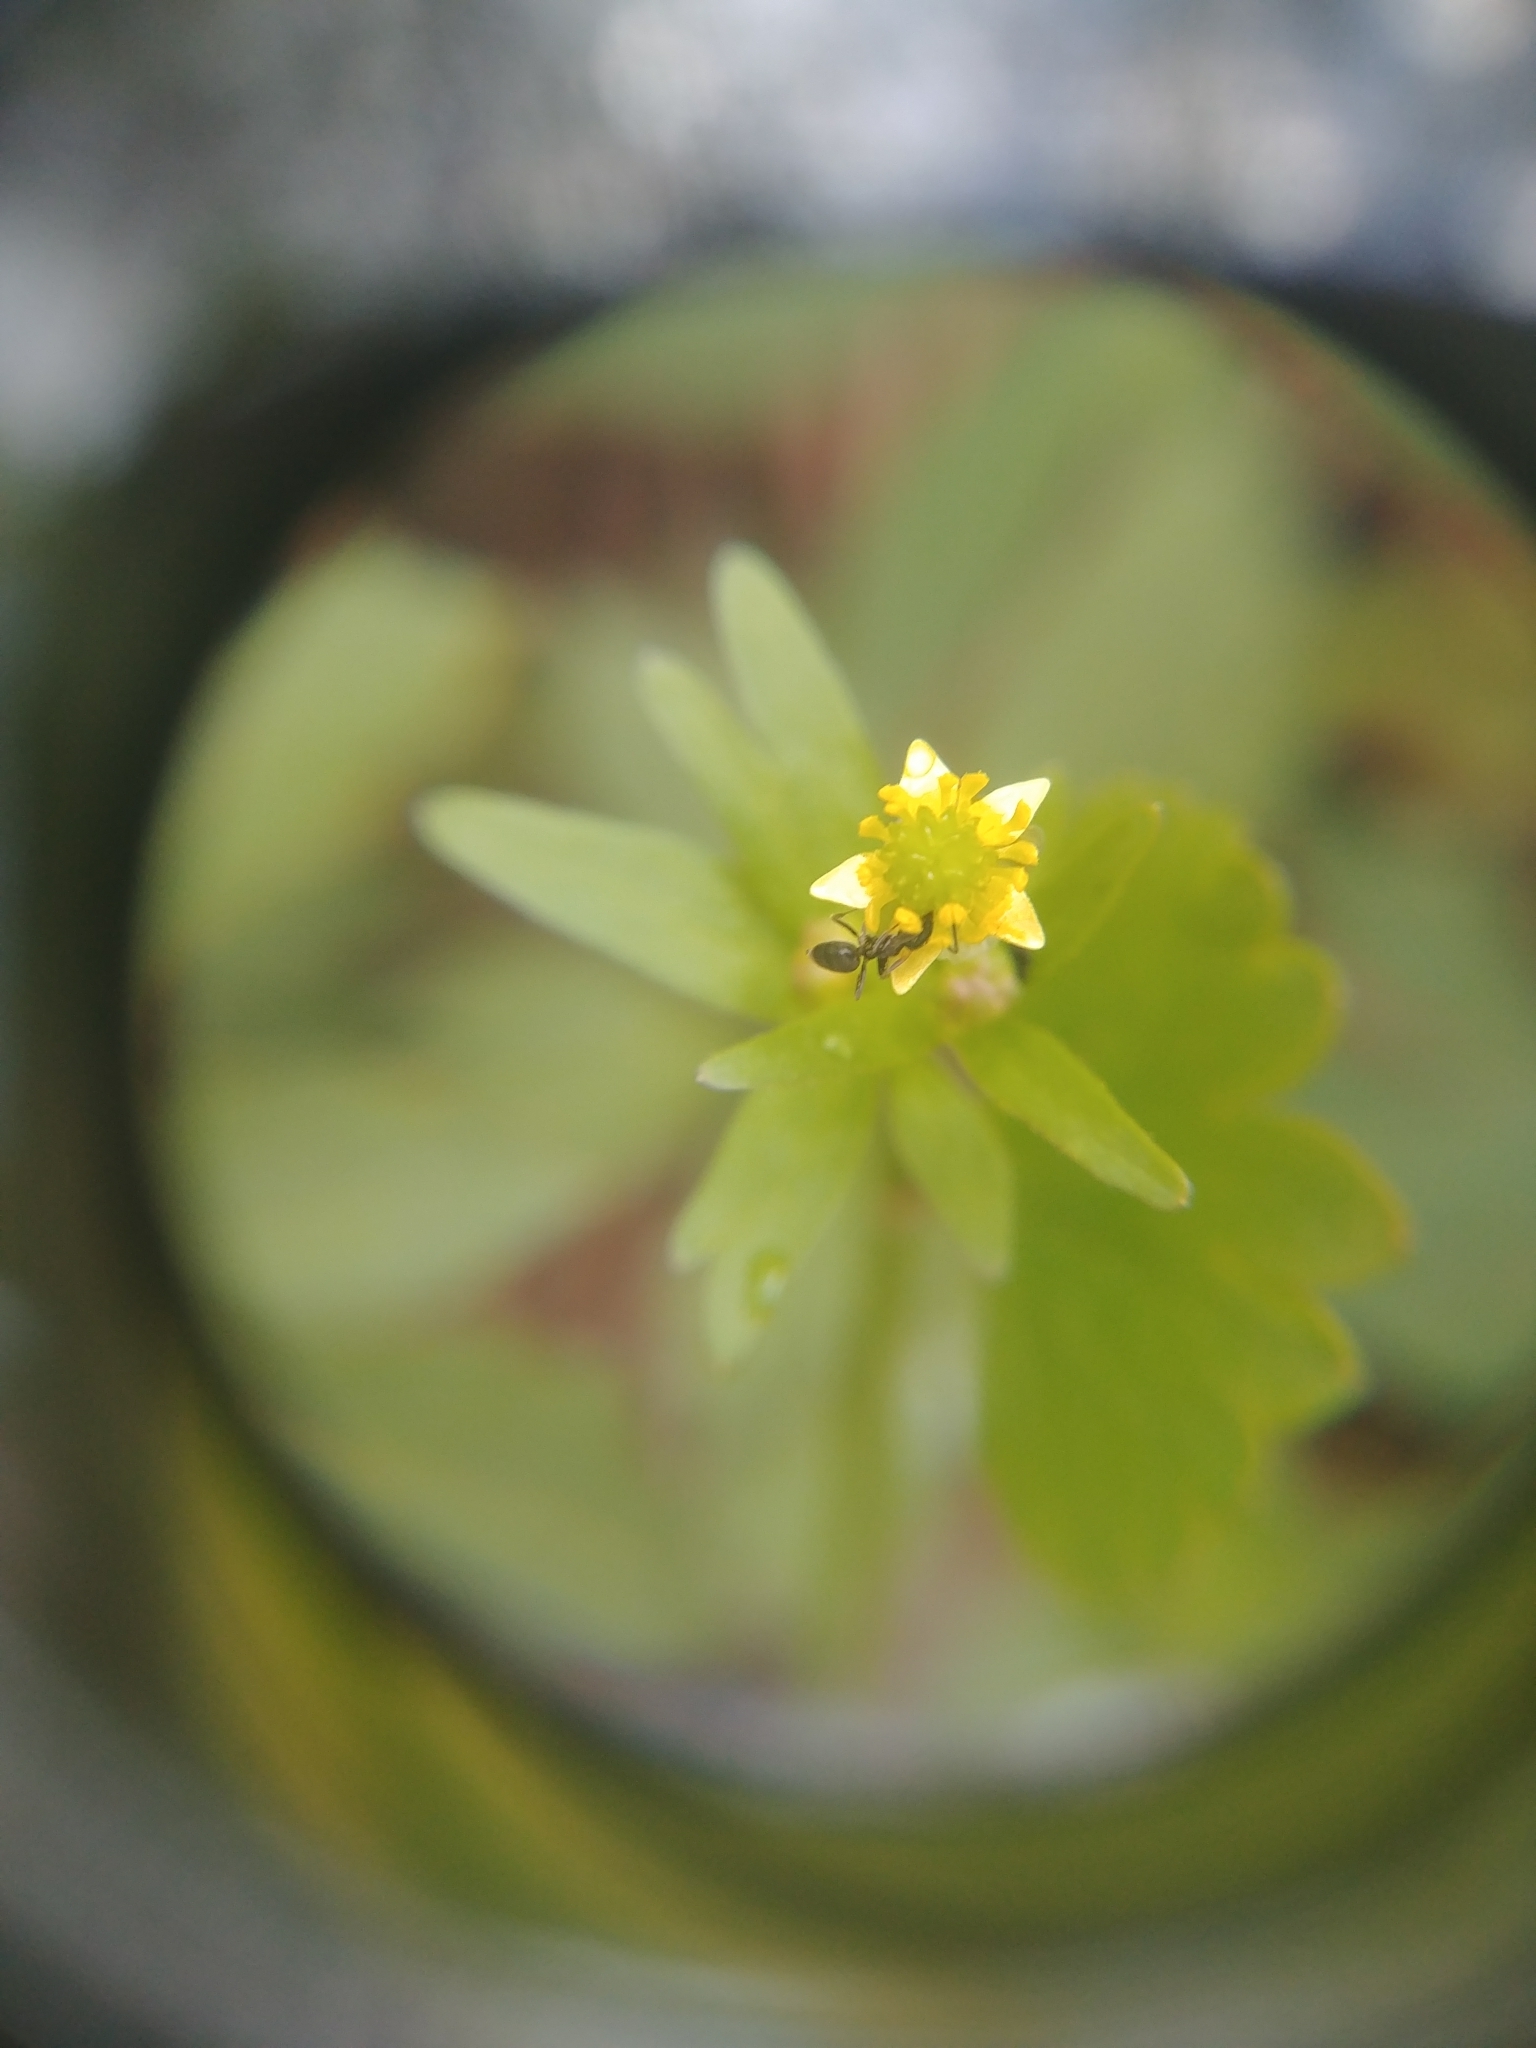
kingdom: Plantae
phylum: Tracheophyta
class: Magnoliopsida
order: Ranunculales
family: Ranunculaceae
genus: Ranunculus
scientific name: Ranunculus abortivus
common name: Early wood buttercup
